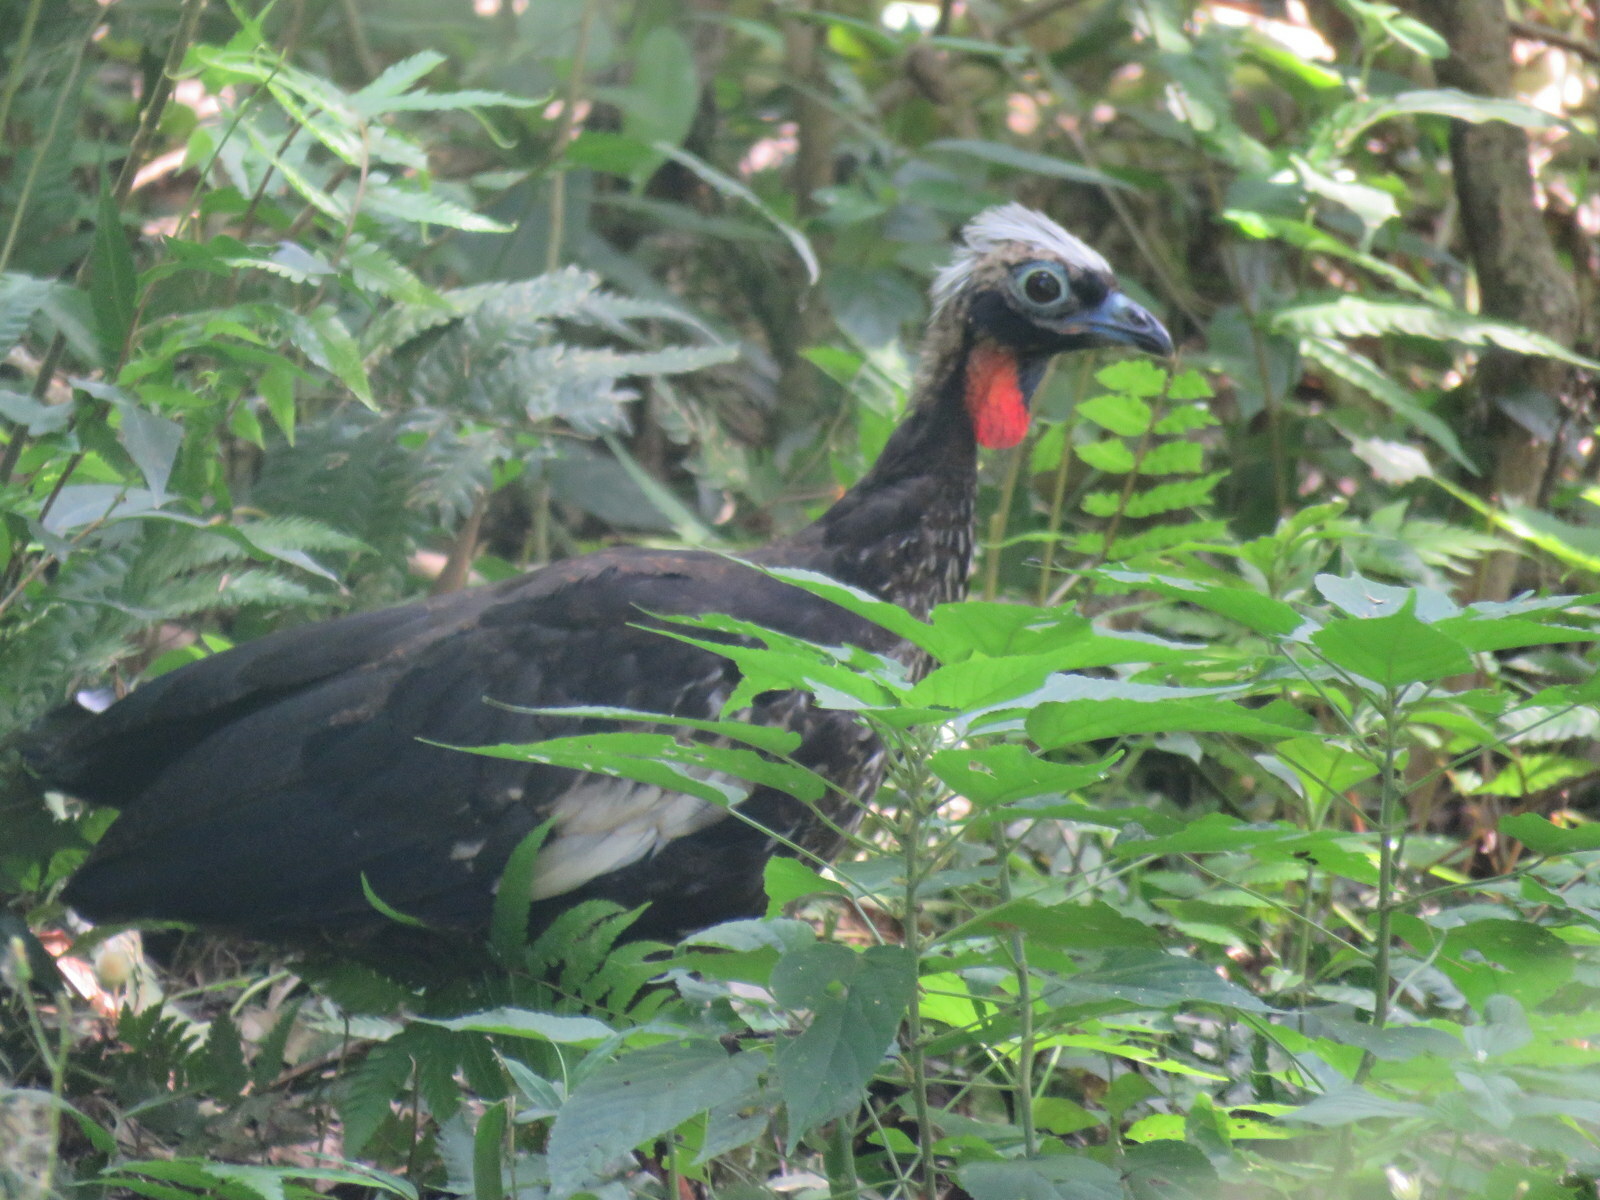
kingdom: Animalia
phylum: Chordata
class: Aves
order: Galliformes
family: Cracidae
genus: Pipile
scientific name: Pipile jacutinga
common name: Black-fronted piping-guan
